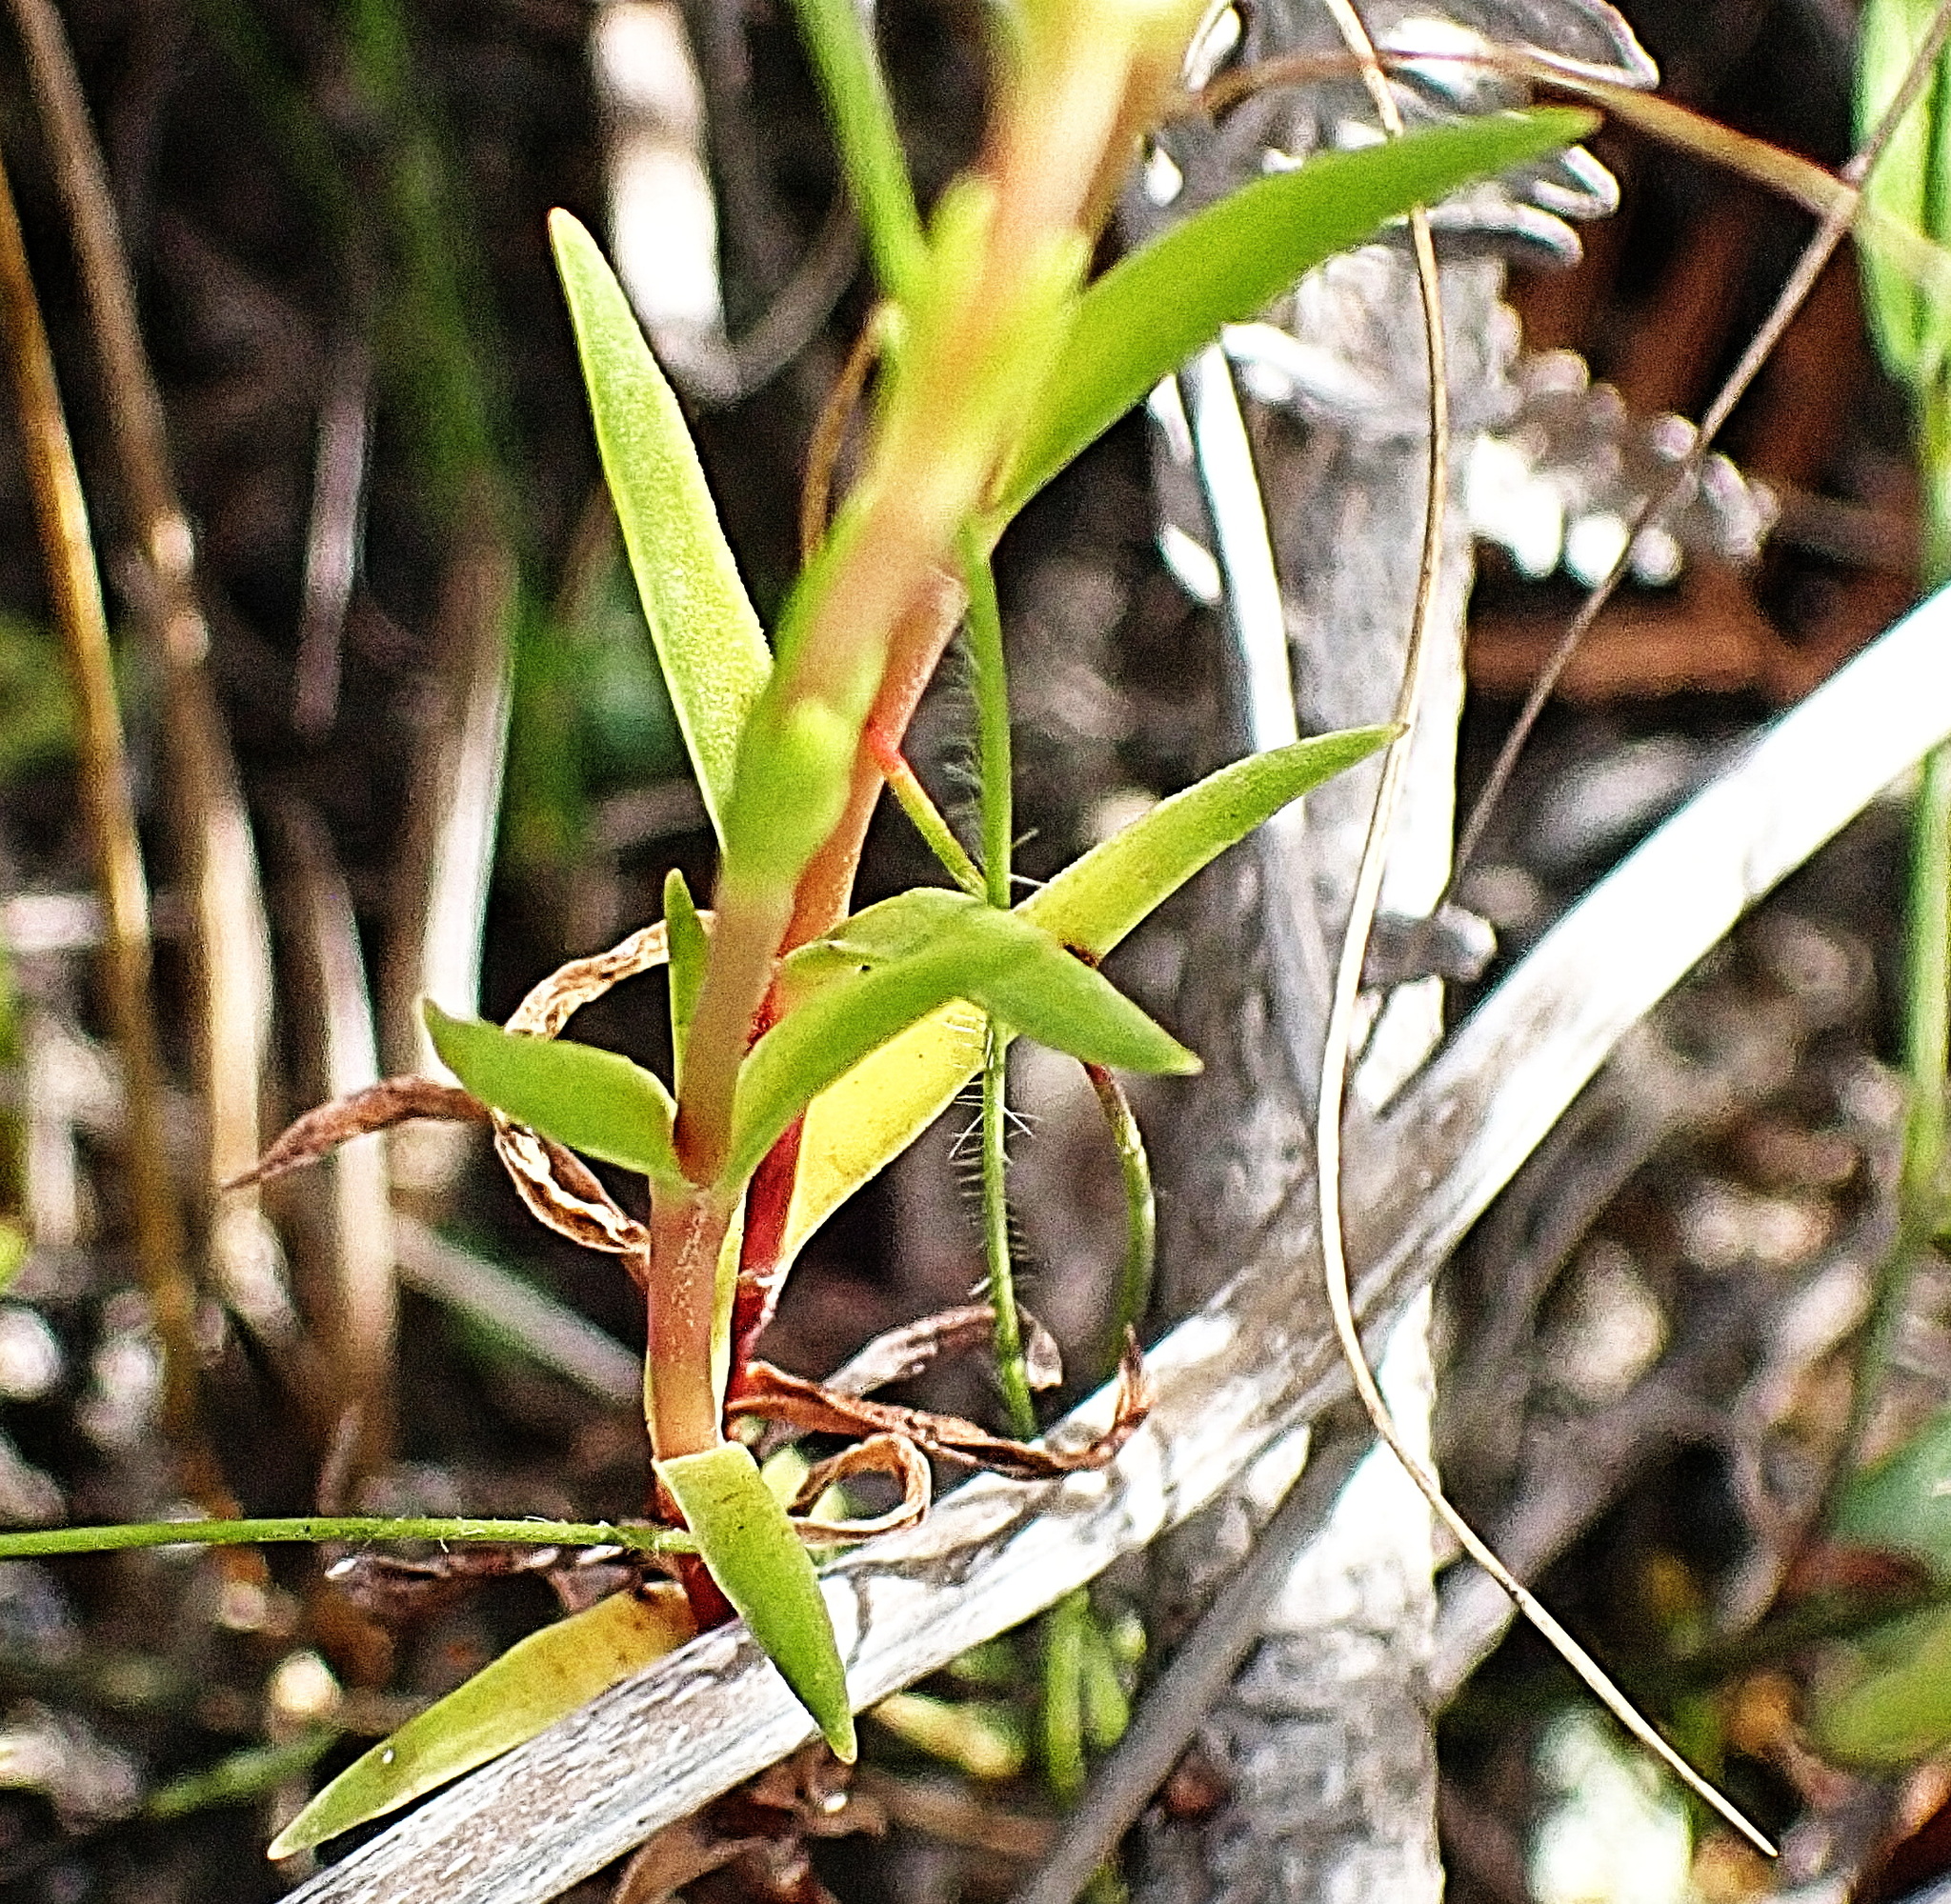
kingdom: Plantae
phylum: Tracheophyta
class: Magnoliopsida
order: Saxifragales
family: Crassulaceae
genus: Crassula
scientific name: Crassula subulata
